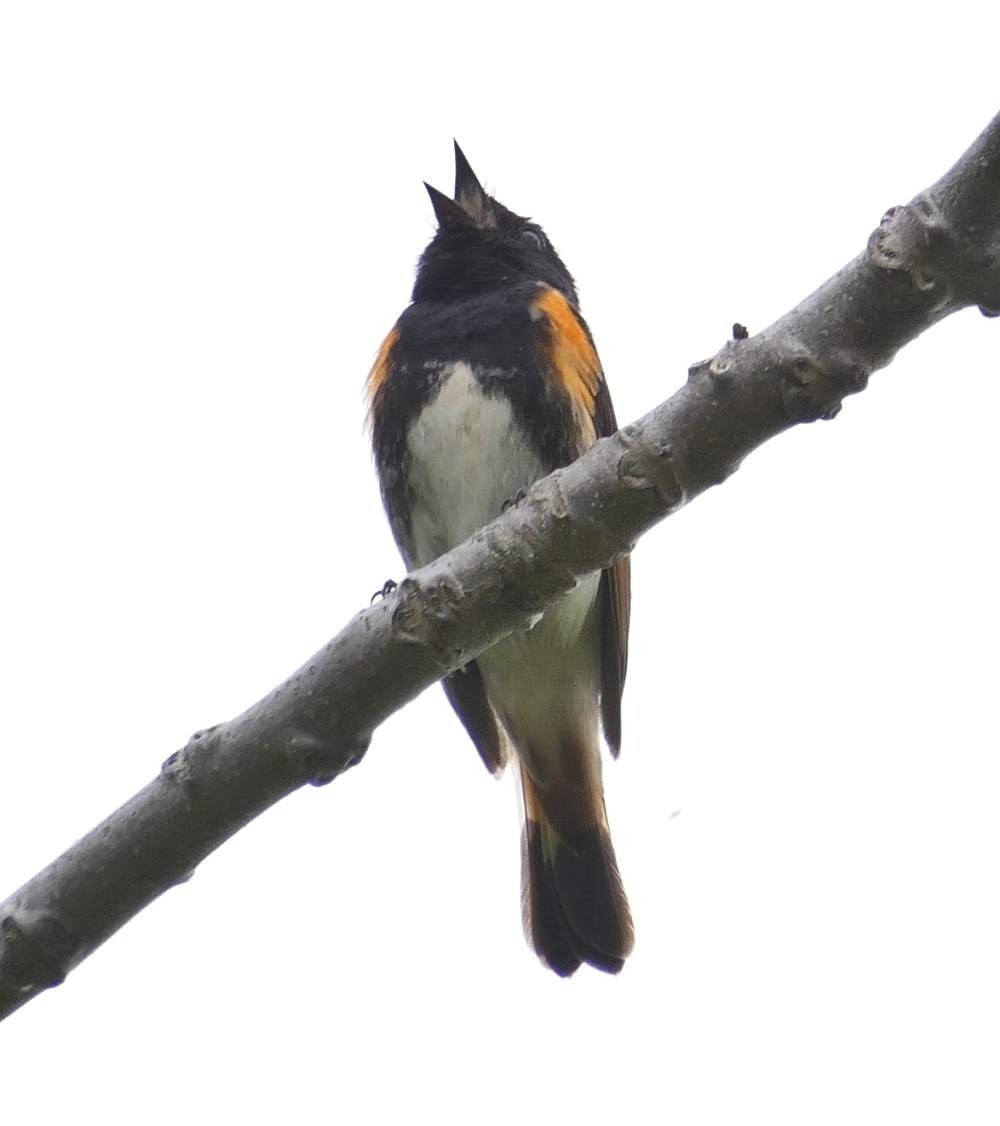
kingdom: Animalia
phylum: Chordata
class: Aves
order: Passeriformes
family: Parulidae
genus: Setophaga
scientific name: Setophaga ruticilla
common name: American redstart
